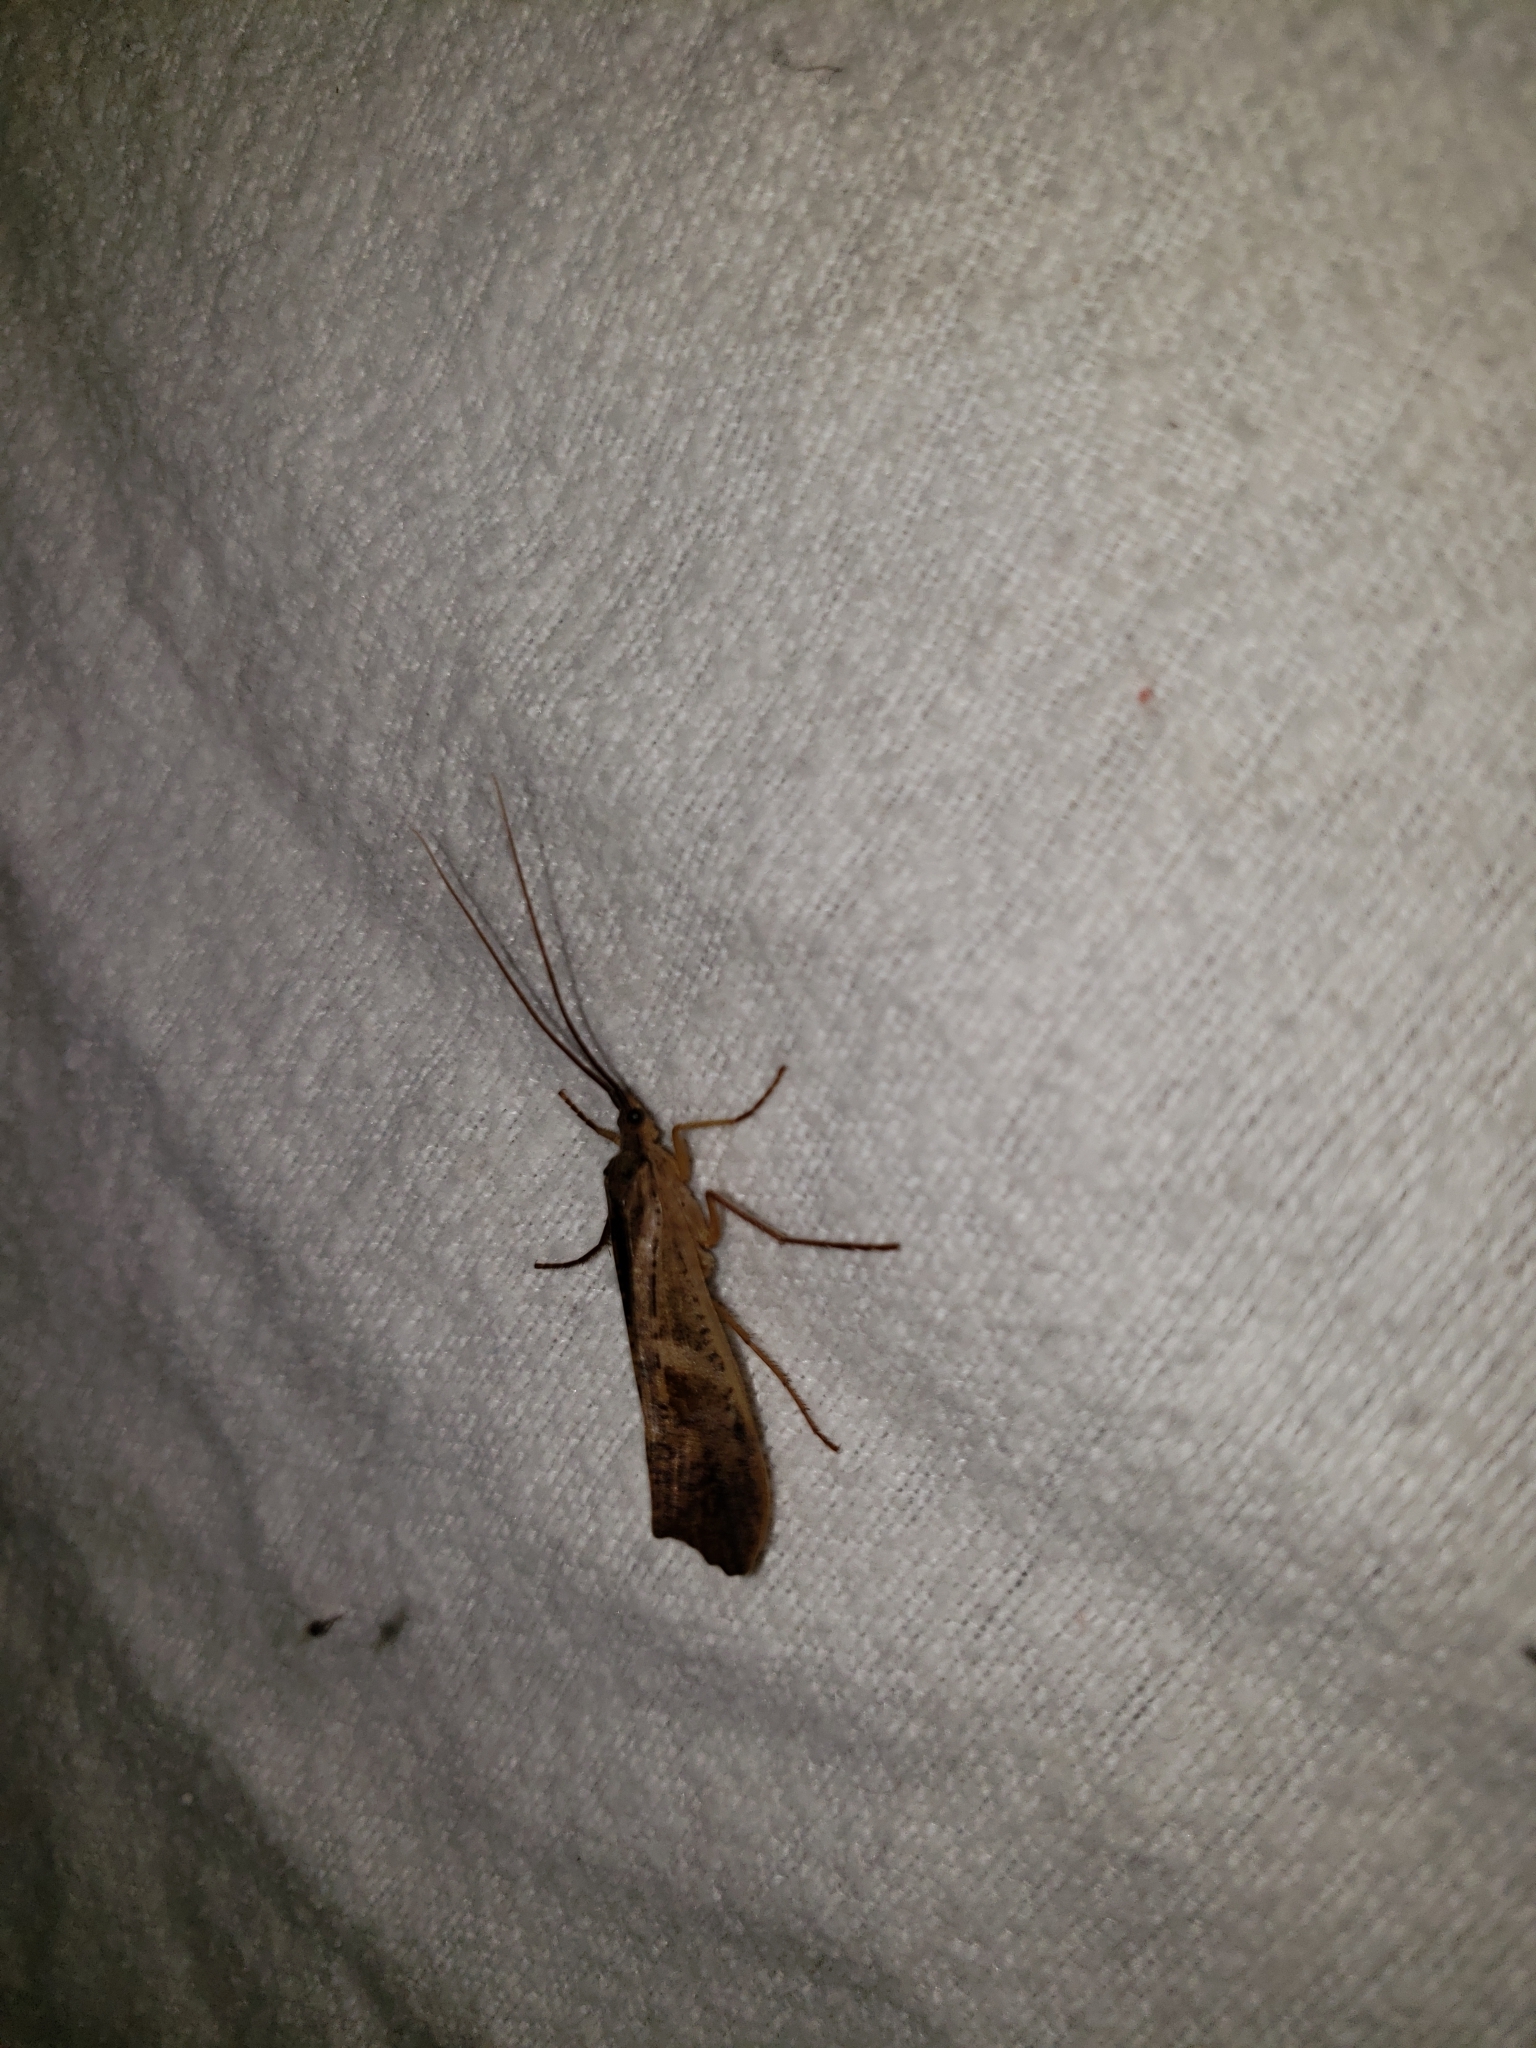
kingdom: Animalia
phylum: Arthropoda
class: Insecta
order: Trichoptera
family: Limnephilidae
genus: Nemotaulius
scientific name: Nemotaulius hostilis
